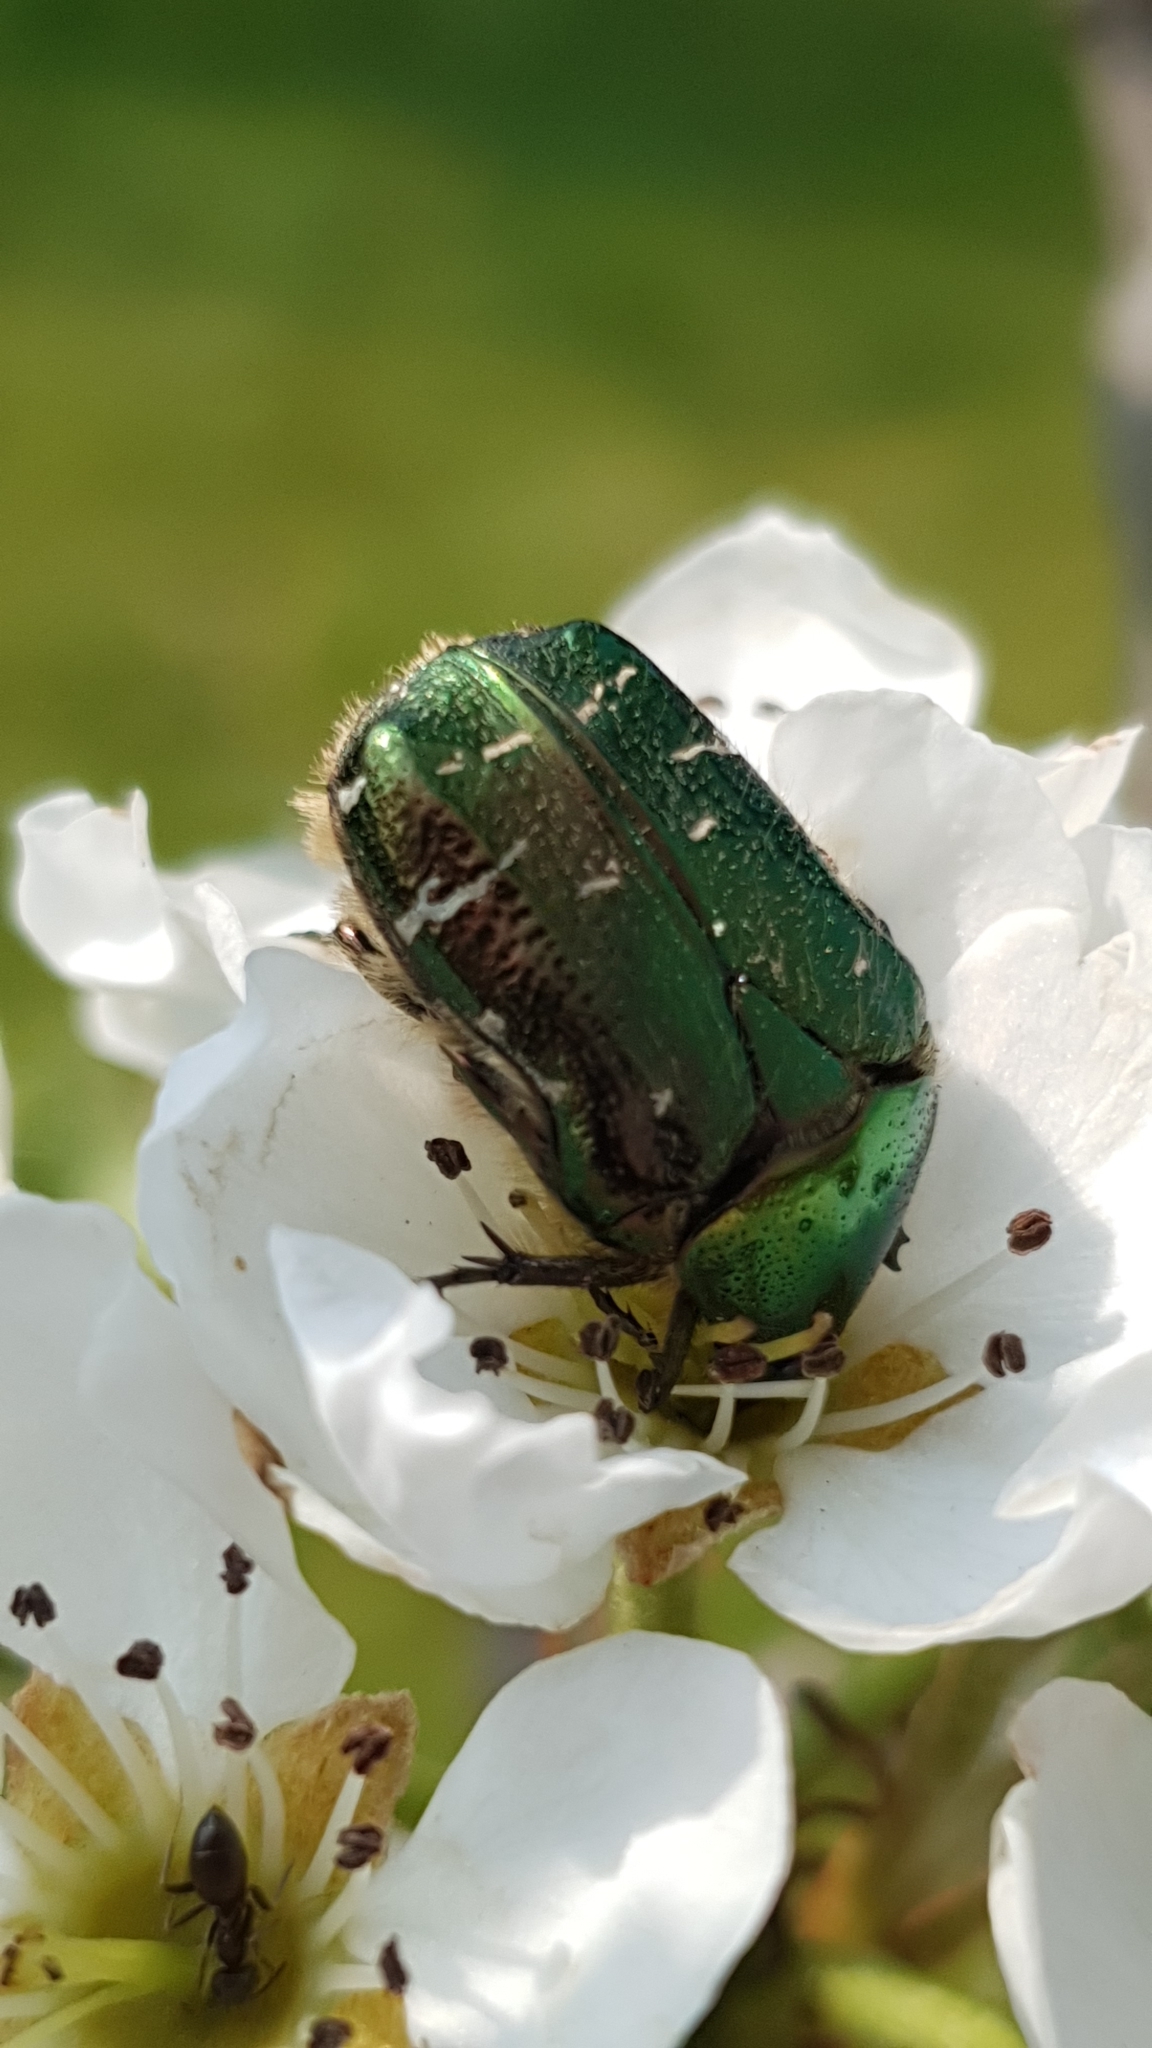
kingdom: Animalia
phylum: Arthropoda
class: Insecta
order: Coleoptera
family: Scarabaeidae
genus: Cetonia
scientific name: Cetonia aurata
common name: Rose chafer
